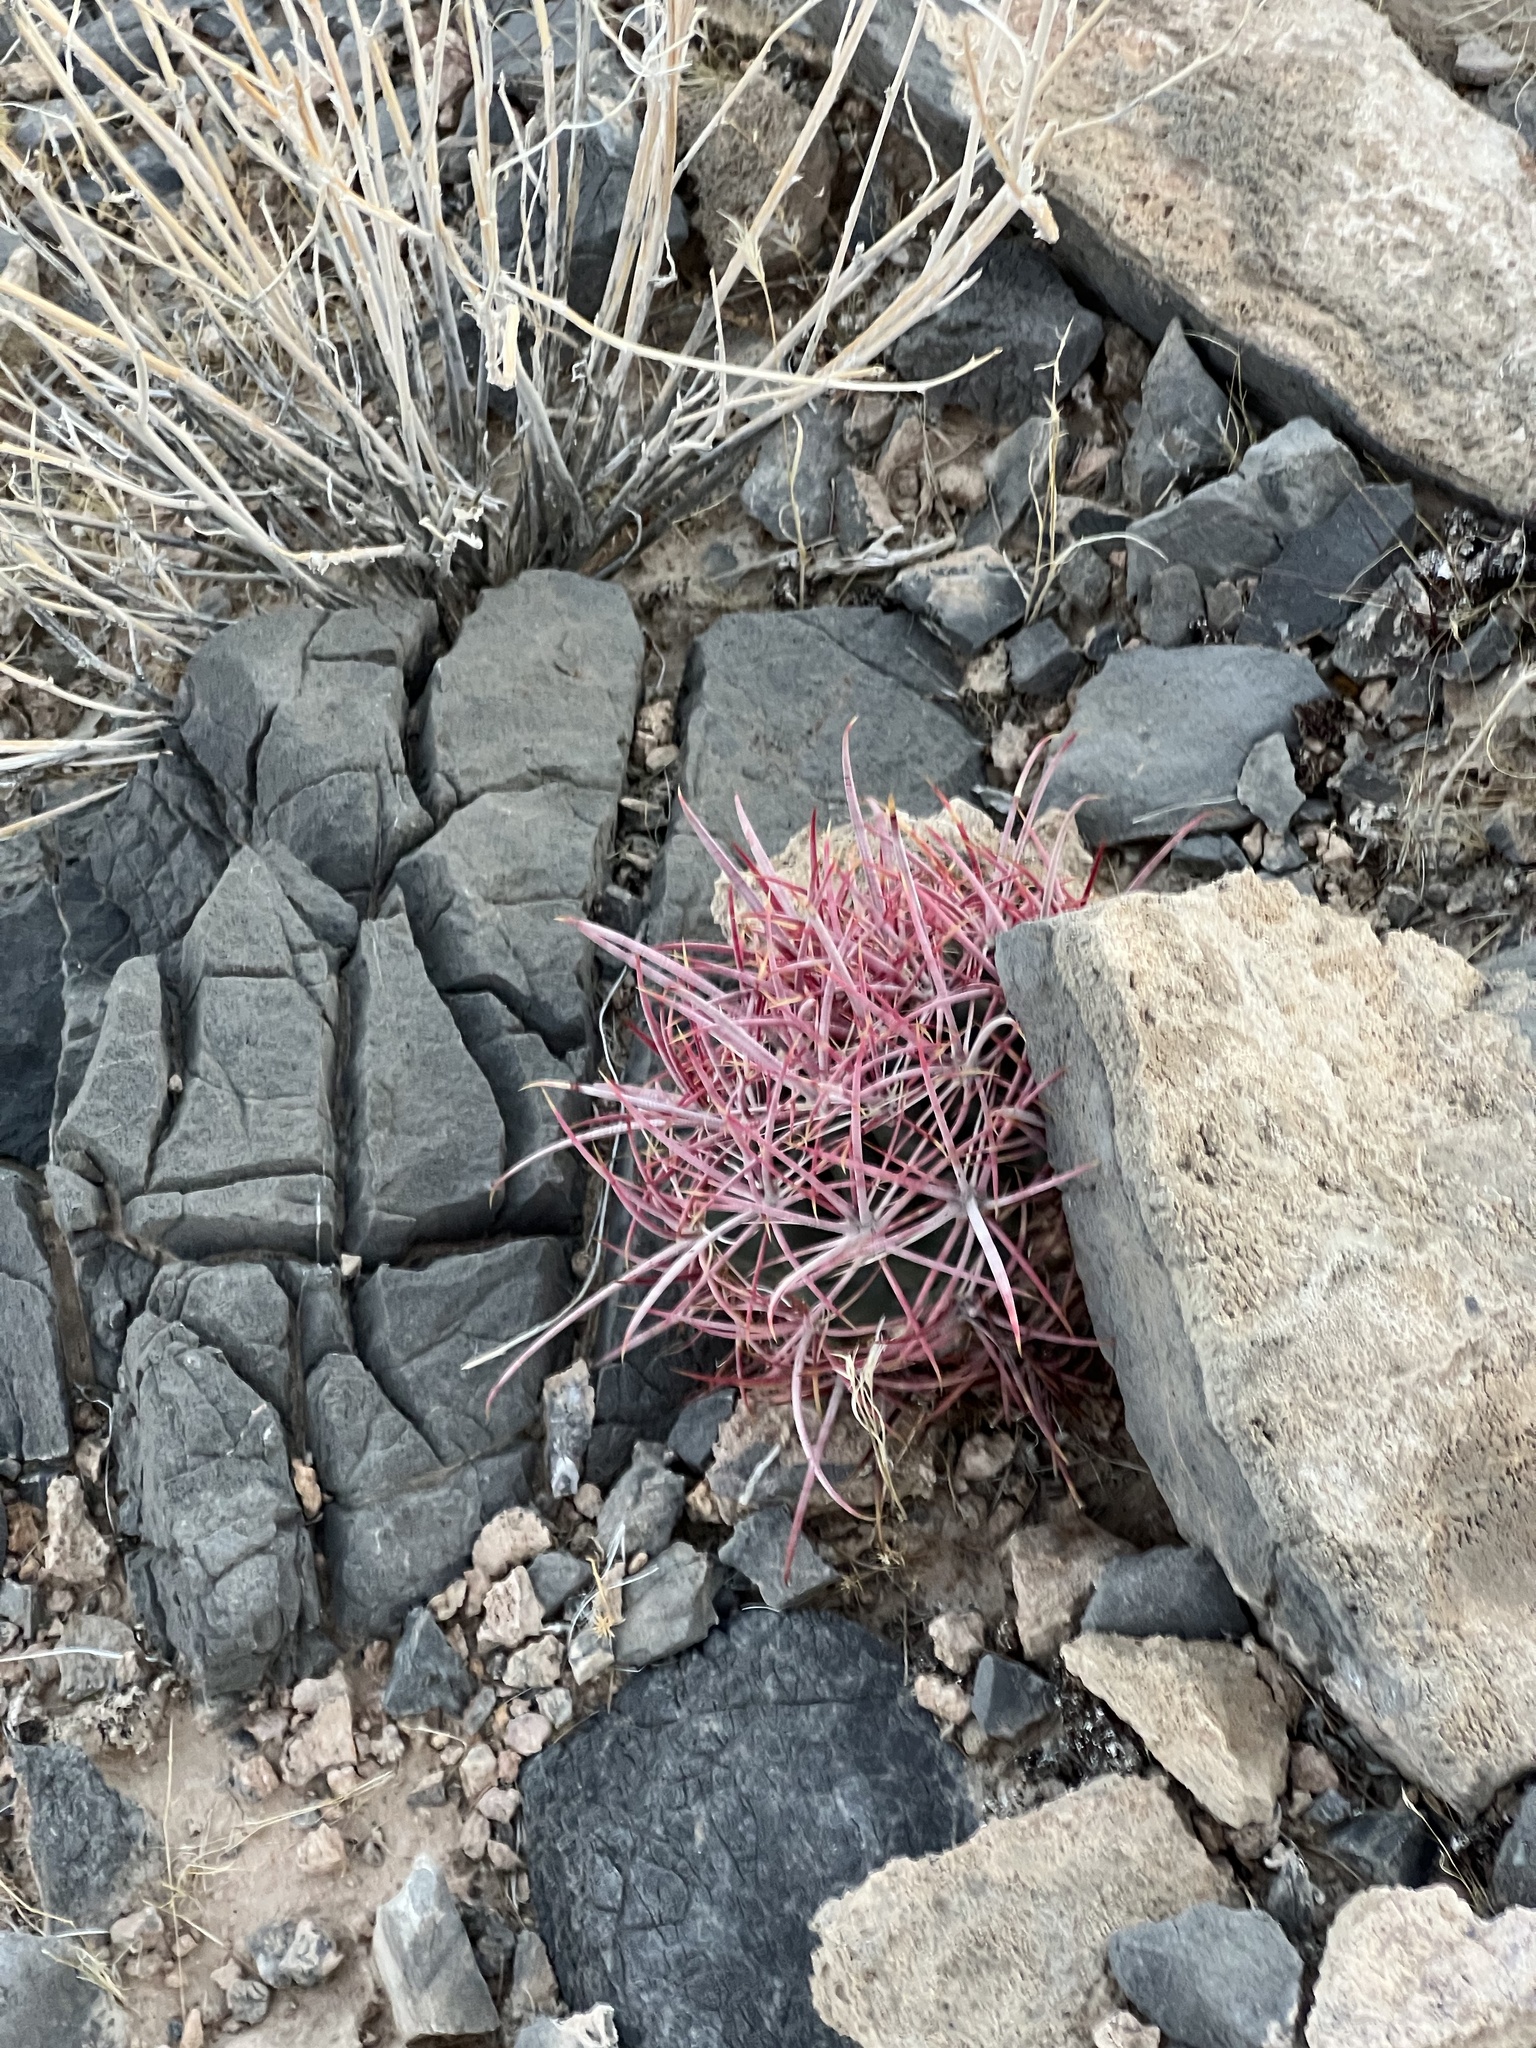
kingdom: Plantae
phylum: Tracheophyta
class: Magnoliopsida
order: Caryophyllales
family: Cactaceae
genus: Ferocactus
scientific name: Ferocactus cylindraceus
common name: California barrel cactus
